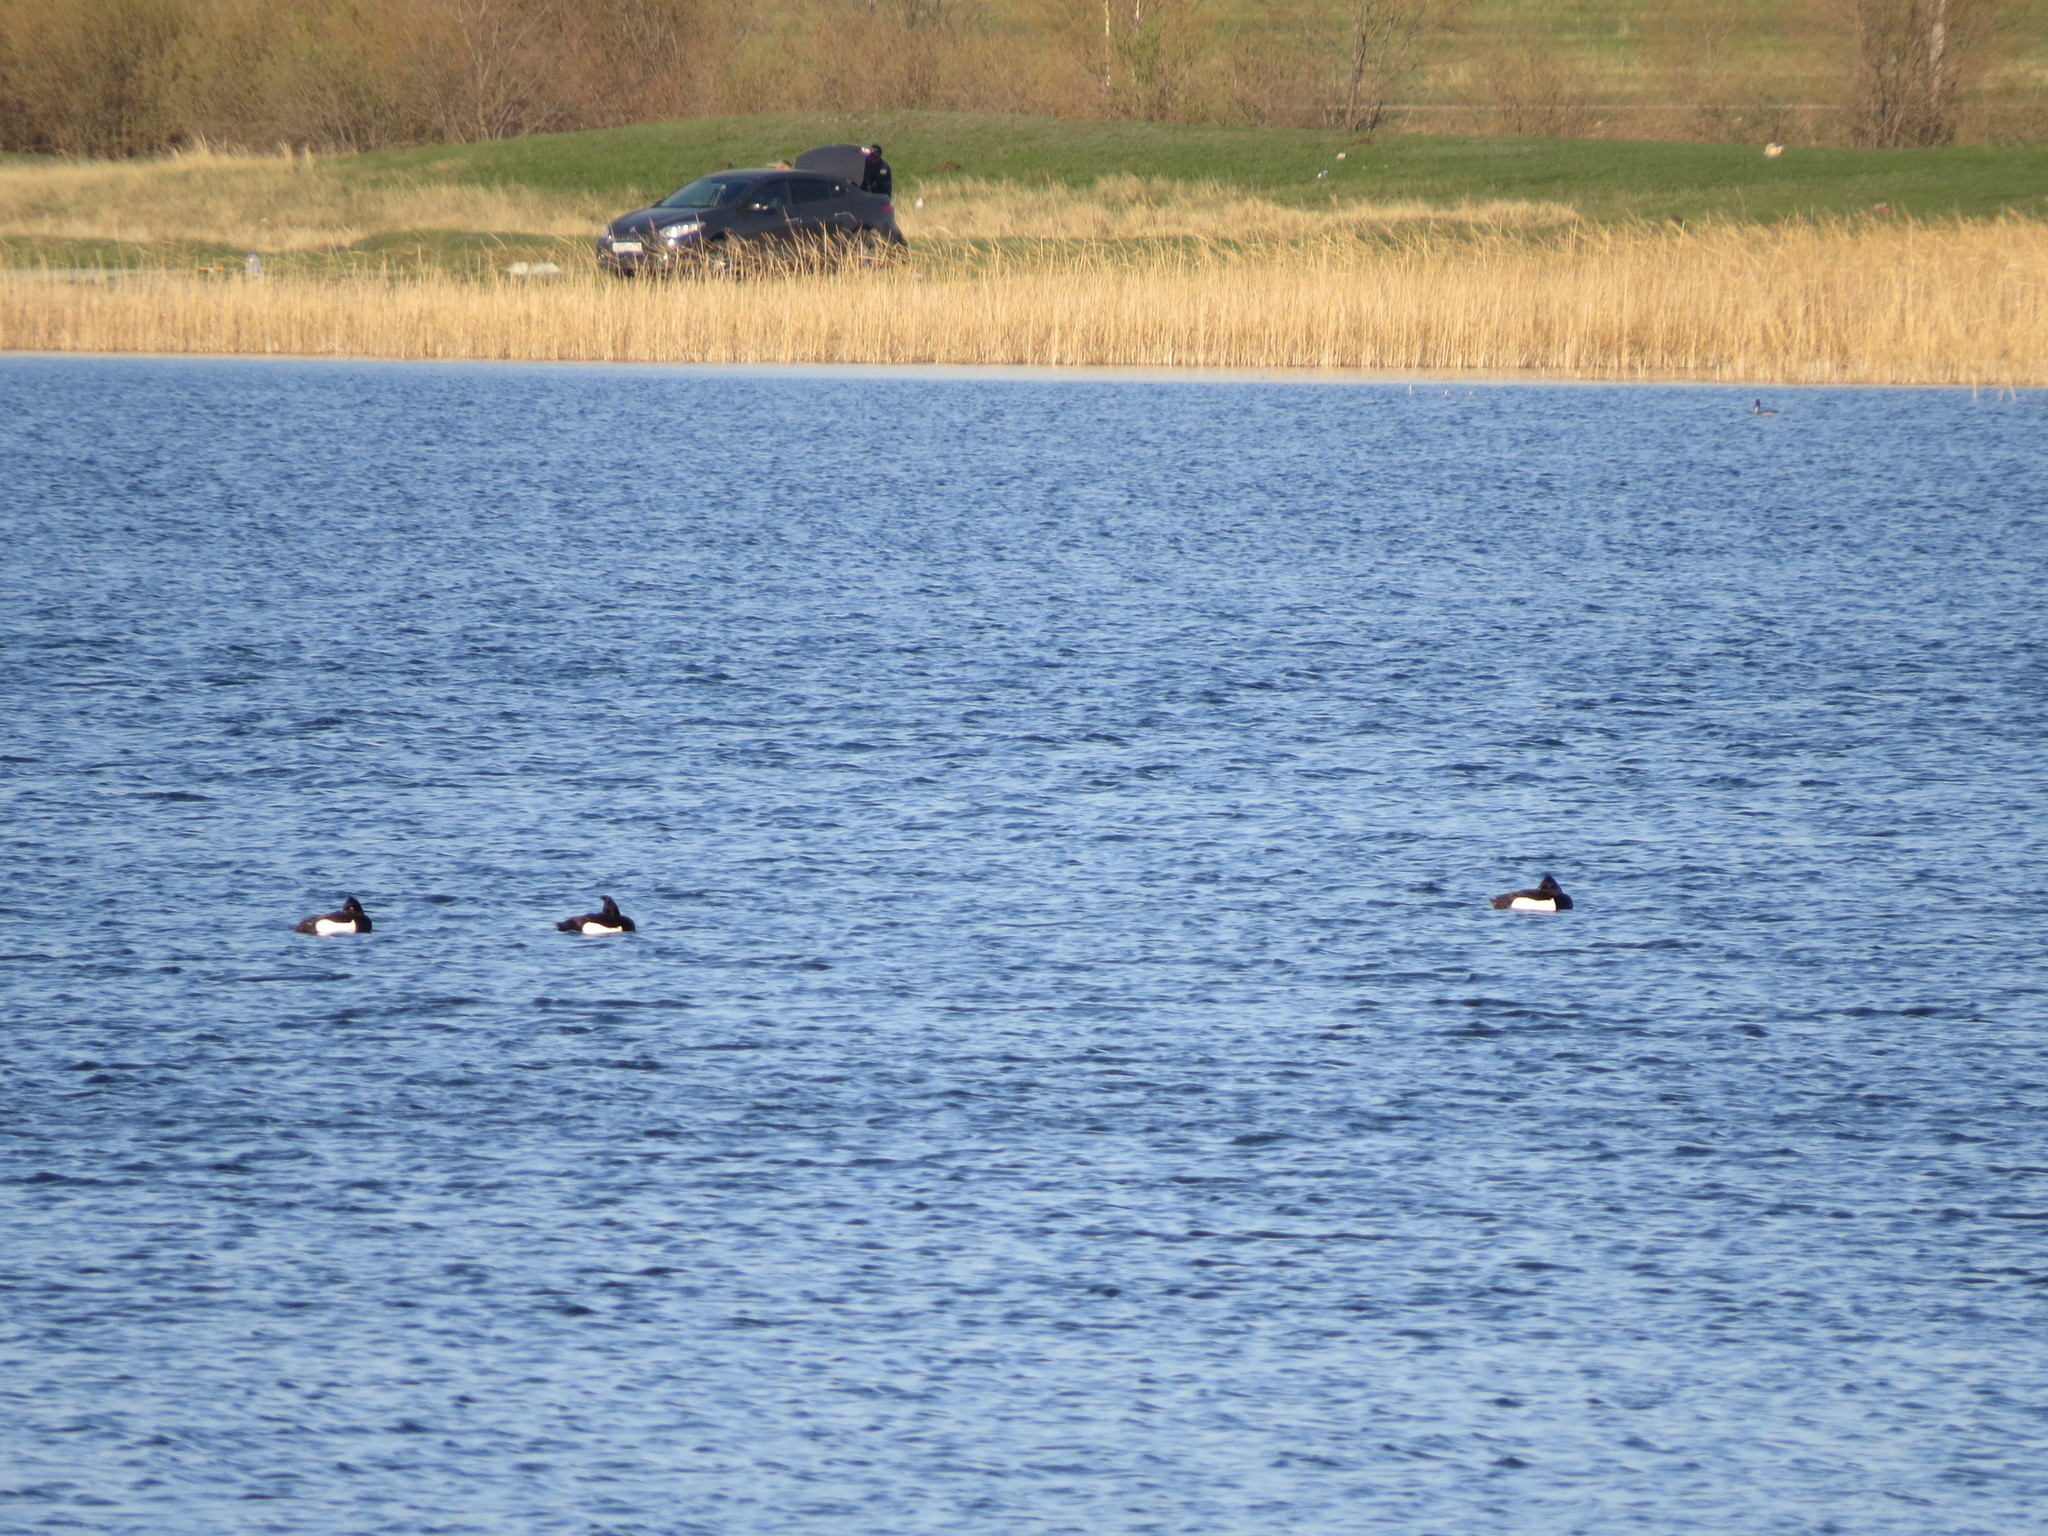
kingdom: Animalia
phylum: Chordata
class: Aves
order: Anseriformes
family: Anatidae
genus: Aythya
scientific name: Aythya fuligula
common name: Tufted duck
